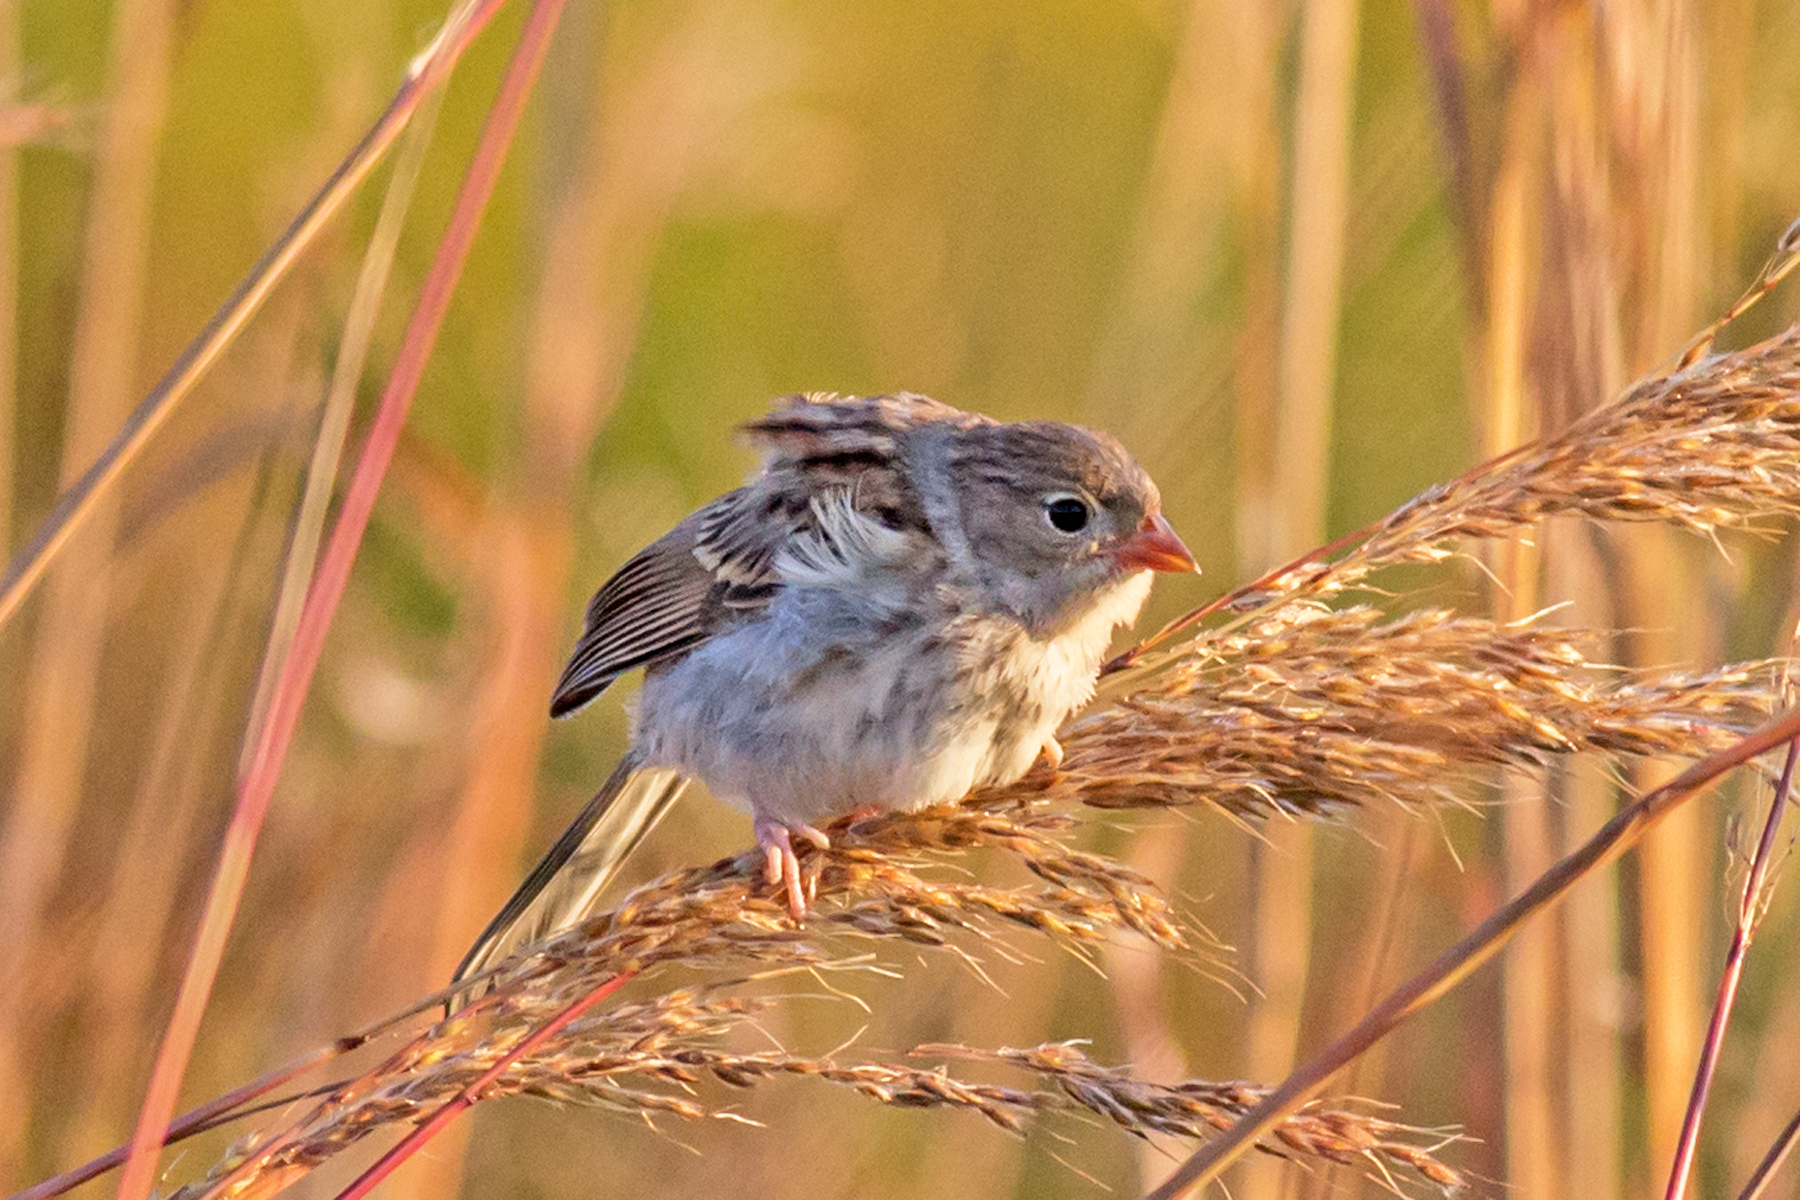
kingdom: Animalia
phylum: Chordata
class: Aves
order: Passeriformes
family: Passerellidae
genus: Spizella
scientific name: Spizella pusilla
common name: Field sparrow
